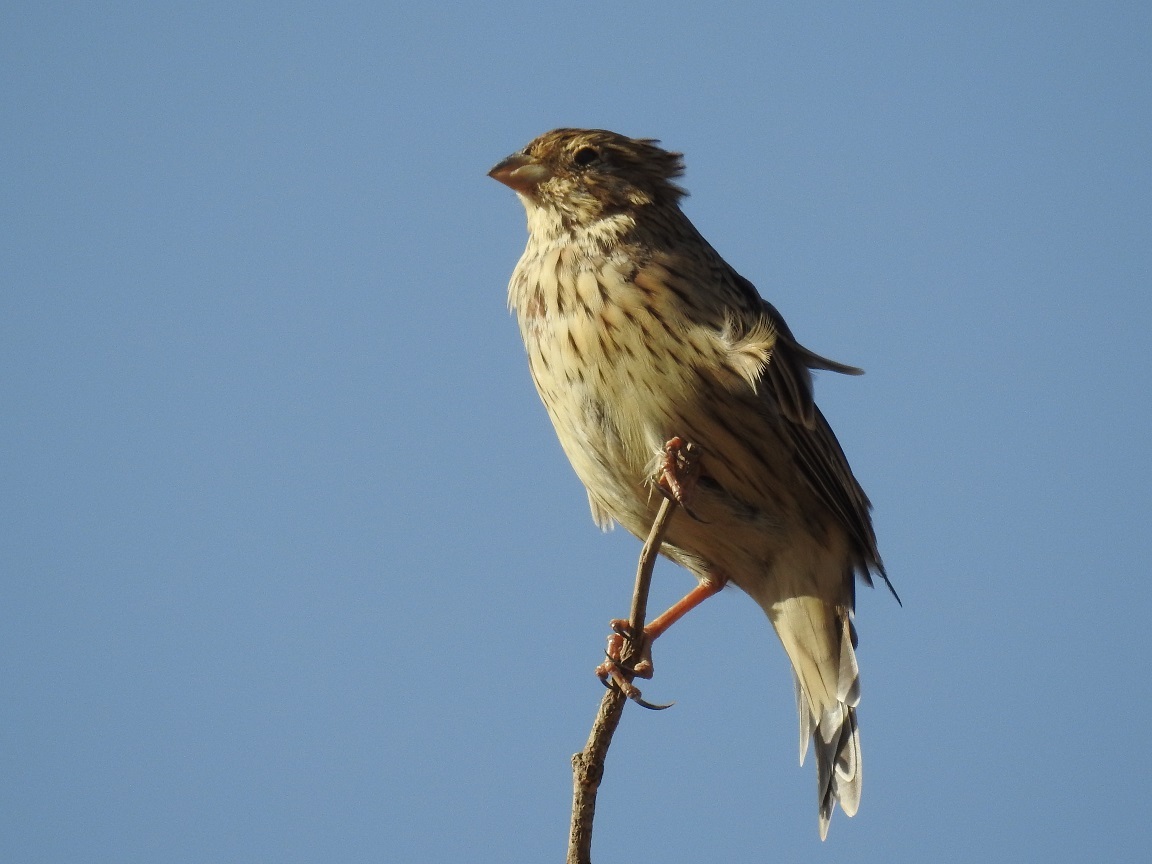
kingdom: Animalia
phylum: Chordata
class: Aves
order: Passeriformes
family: Emberizidae
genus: Emberiza
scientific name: Emberiza calandra
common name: Corn bunting
